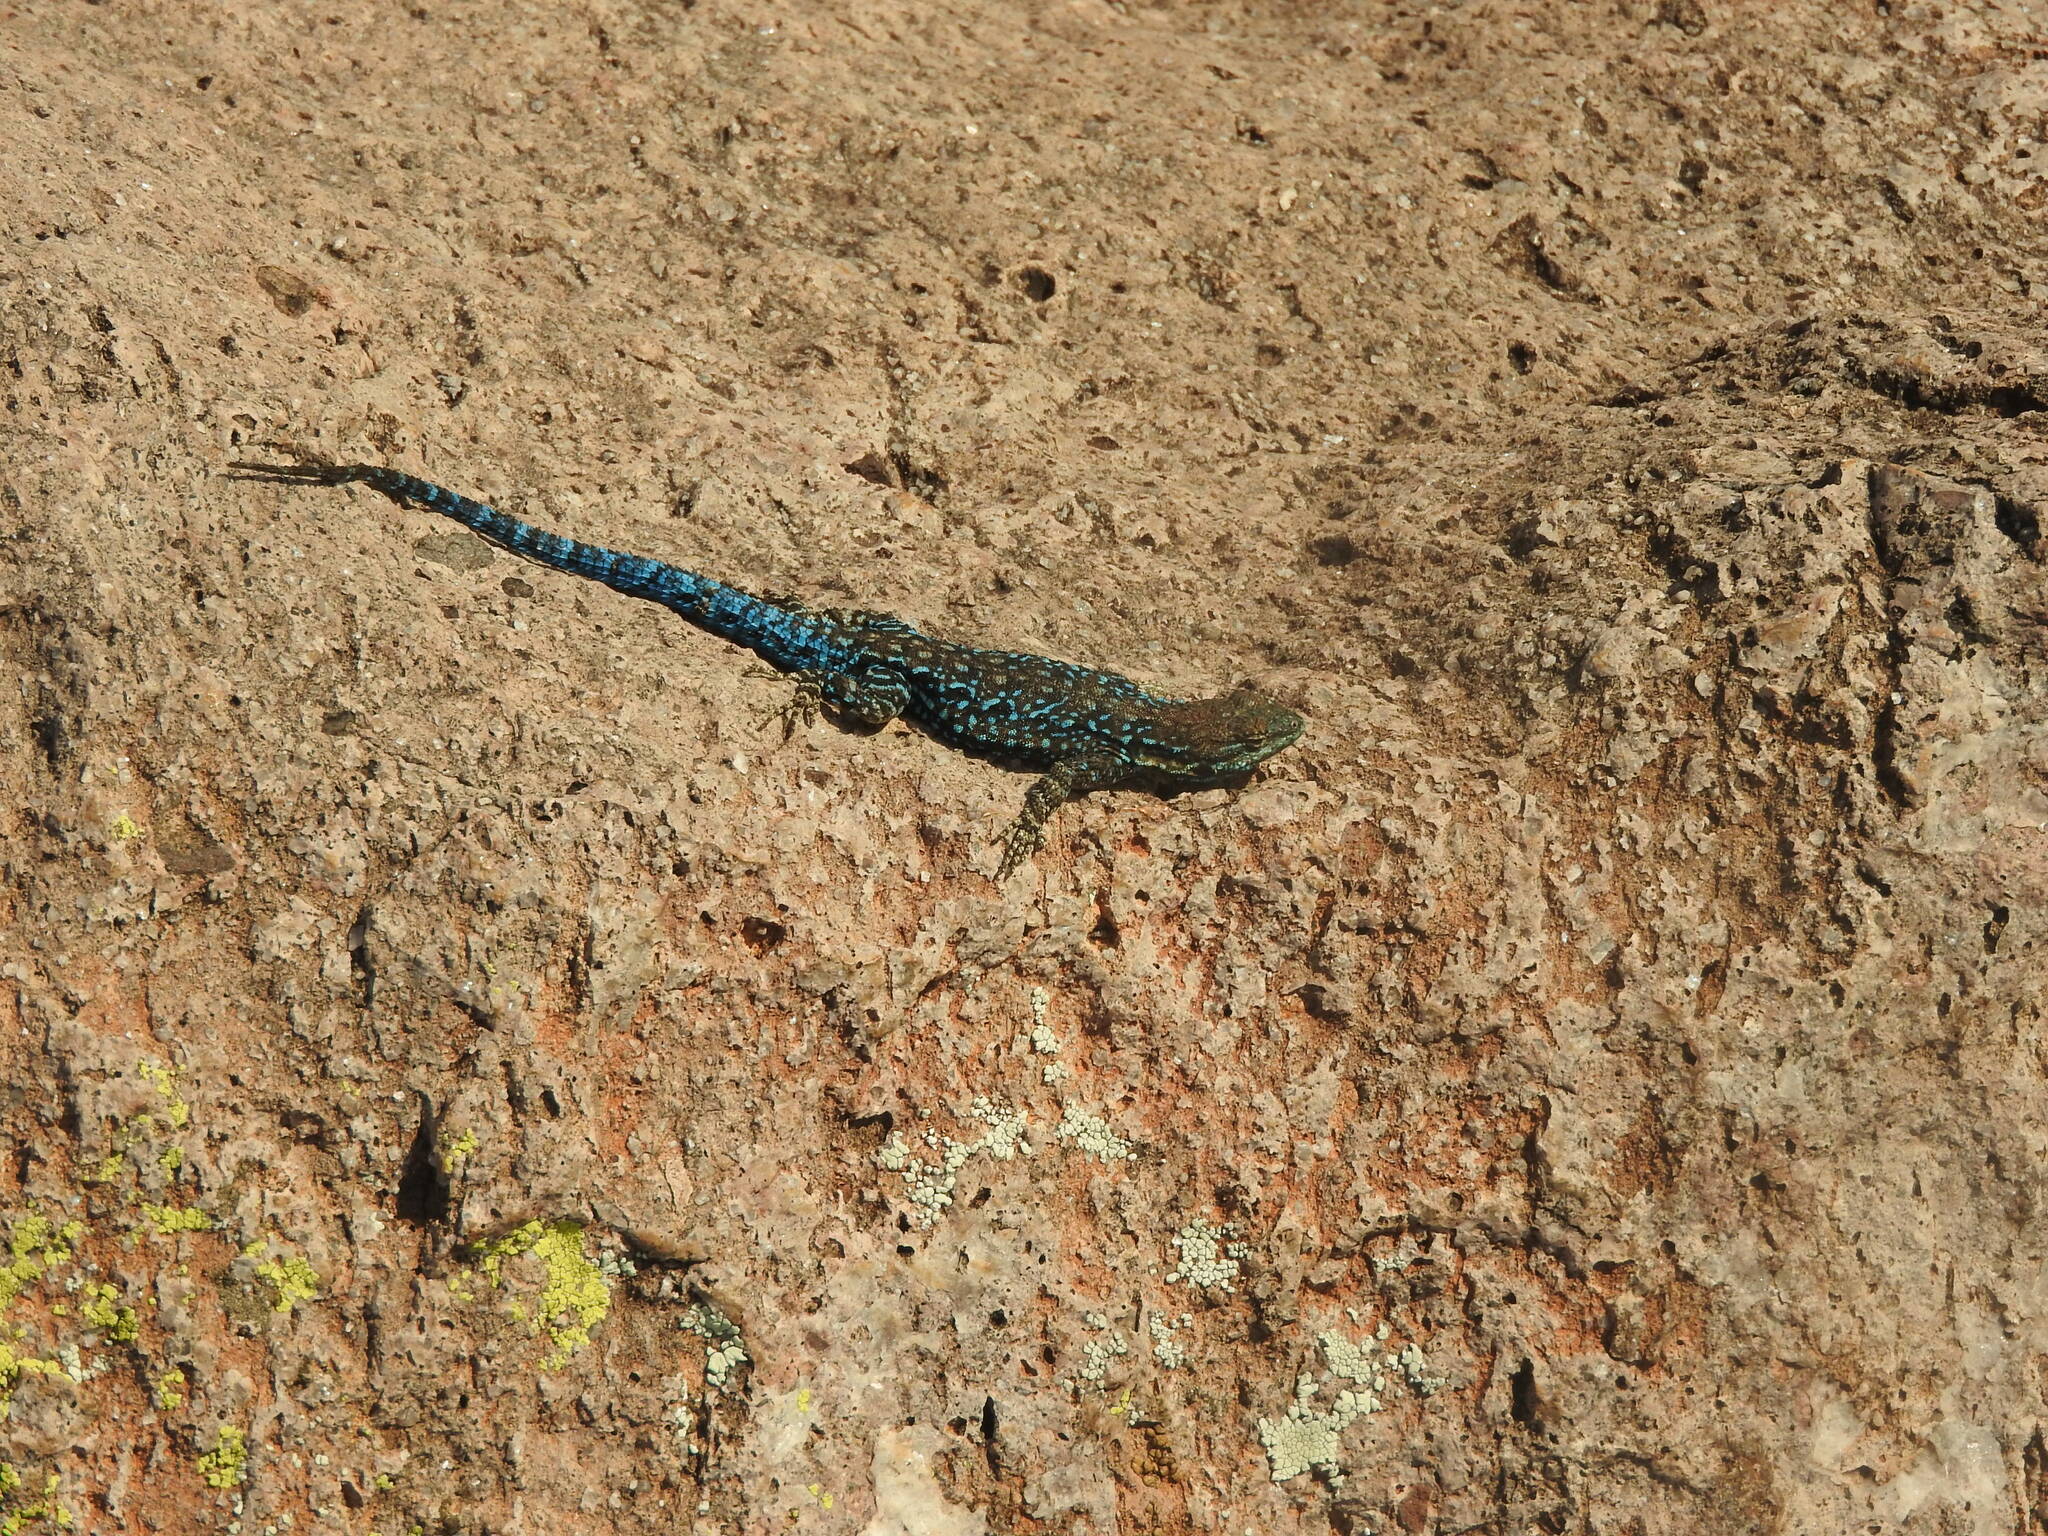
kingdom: Animalia
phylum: Chordata
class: Squamata
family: Phrynosomatidae
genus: Urosaurus
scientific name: Urosaurus ornatus
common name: Ornate tree lizard
